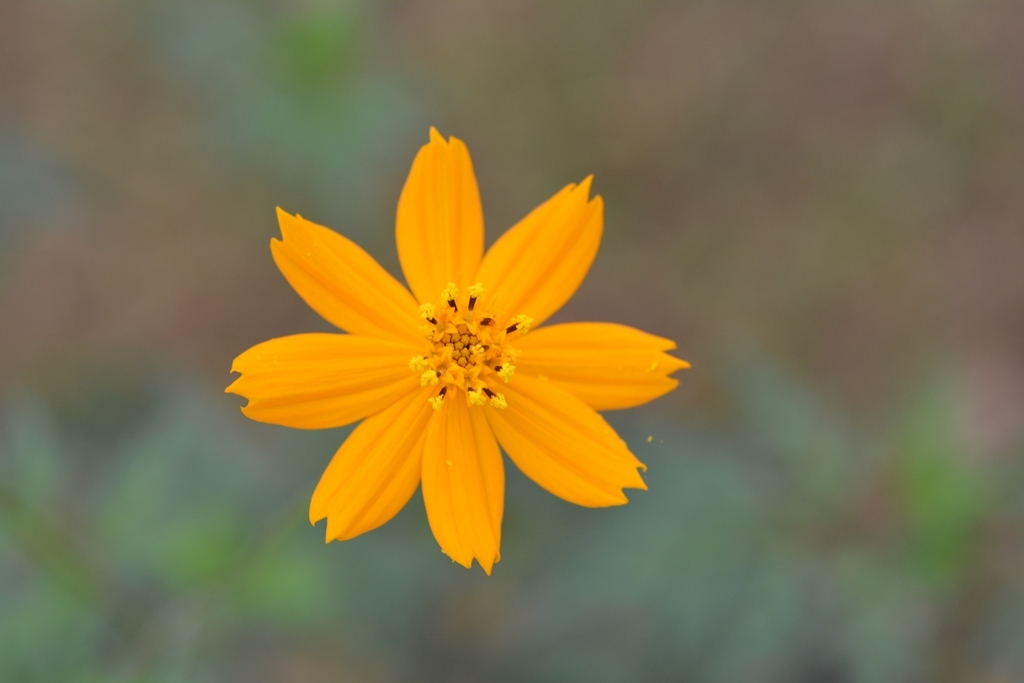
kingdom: Plantae
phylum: Tracheophyta
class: Magnoliopsida
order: Asterales
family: Asteraceae
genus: Cosmos
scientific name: Cosmos sulphureus
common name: Sulphur cosmos
